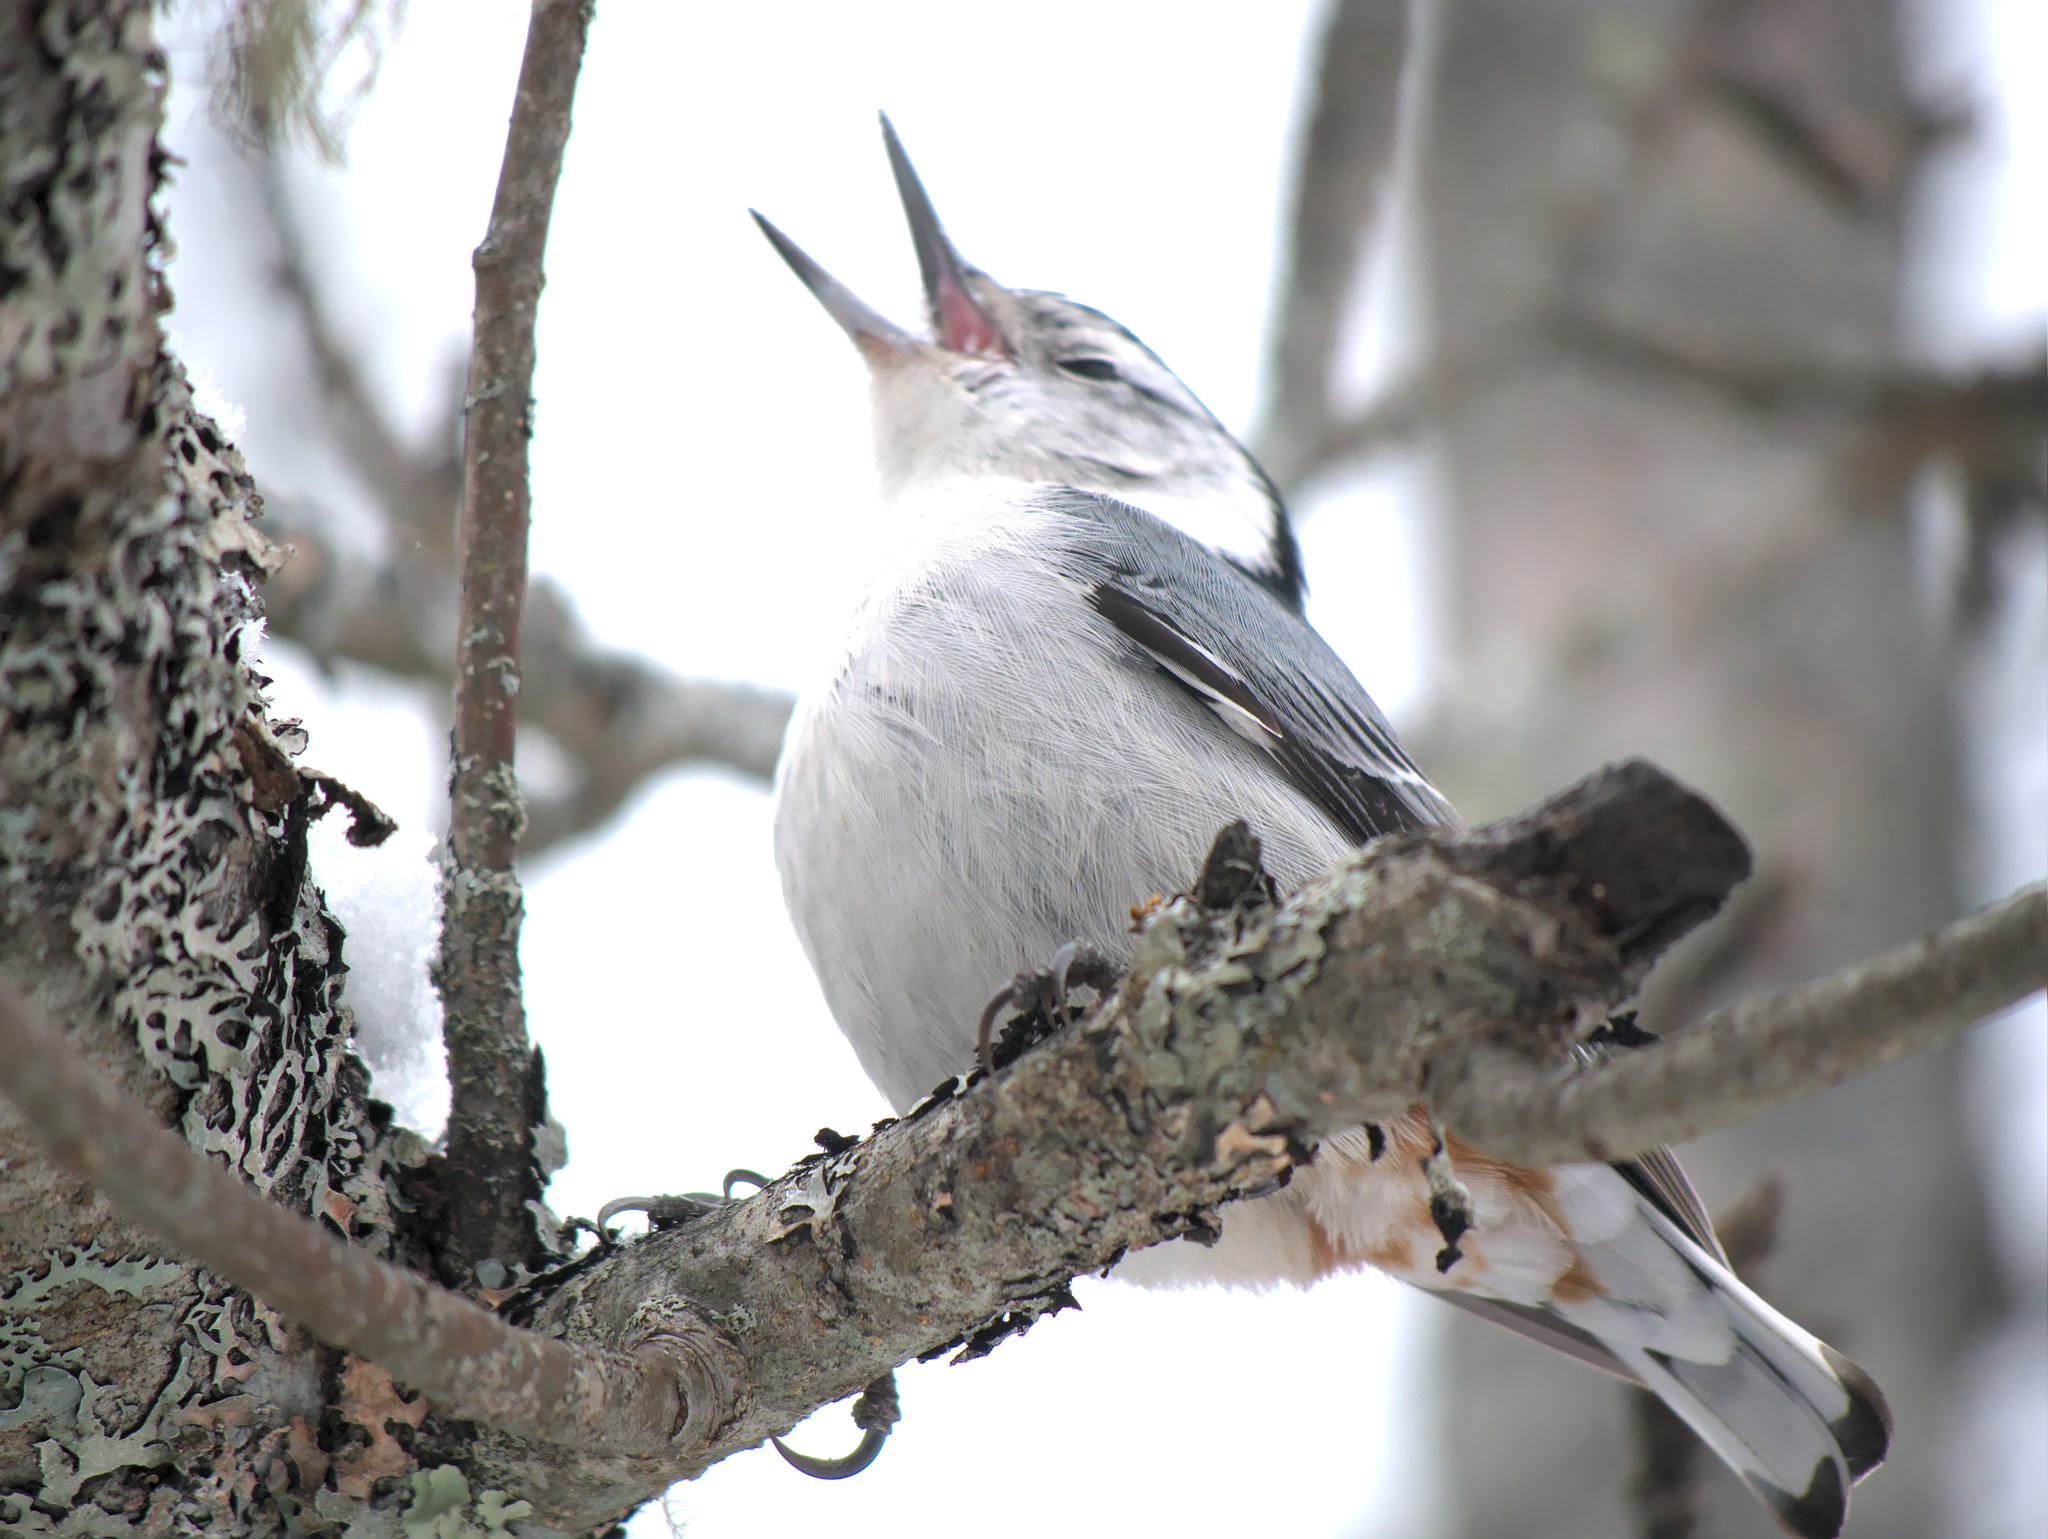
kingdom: Animalia
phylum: Chordata
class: Aves
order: Passeriformes
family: Sittidae
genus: Sitta
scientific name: Sitta carolinensis
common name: White-breasted nuthatch
